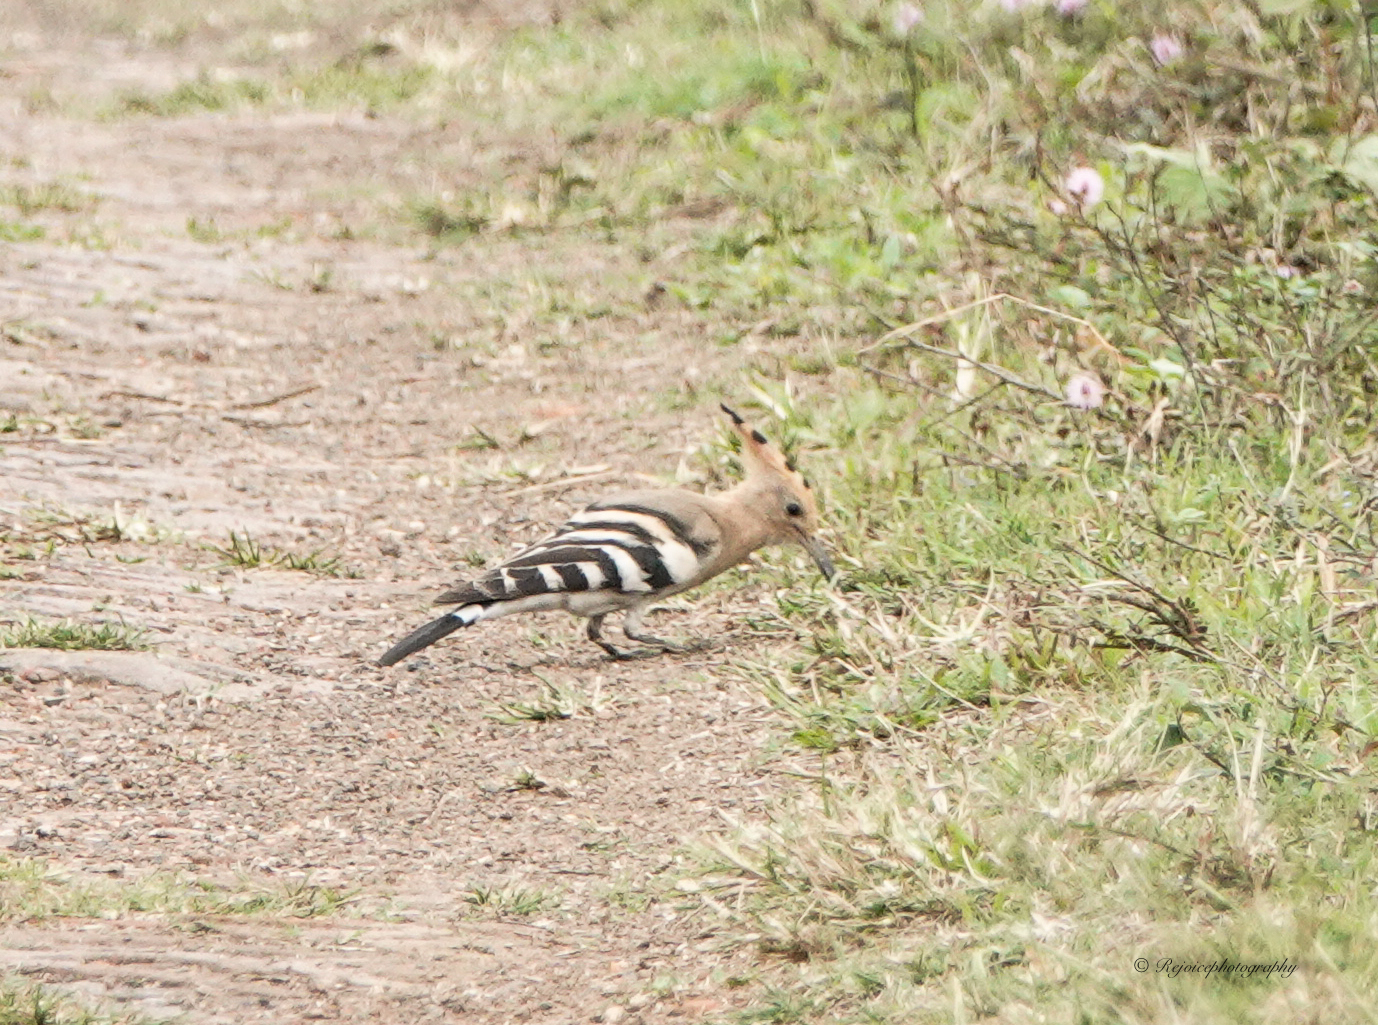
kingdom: Animalia
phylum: Chordata
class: Aves
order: Bucerotiformes
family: Upupidae
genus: Upupa
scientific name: Upupa epops
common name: Eurasian hoopoe
